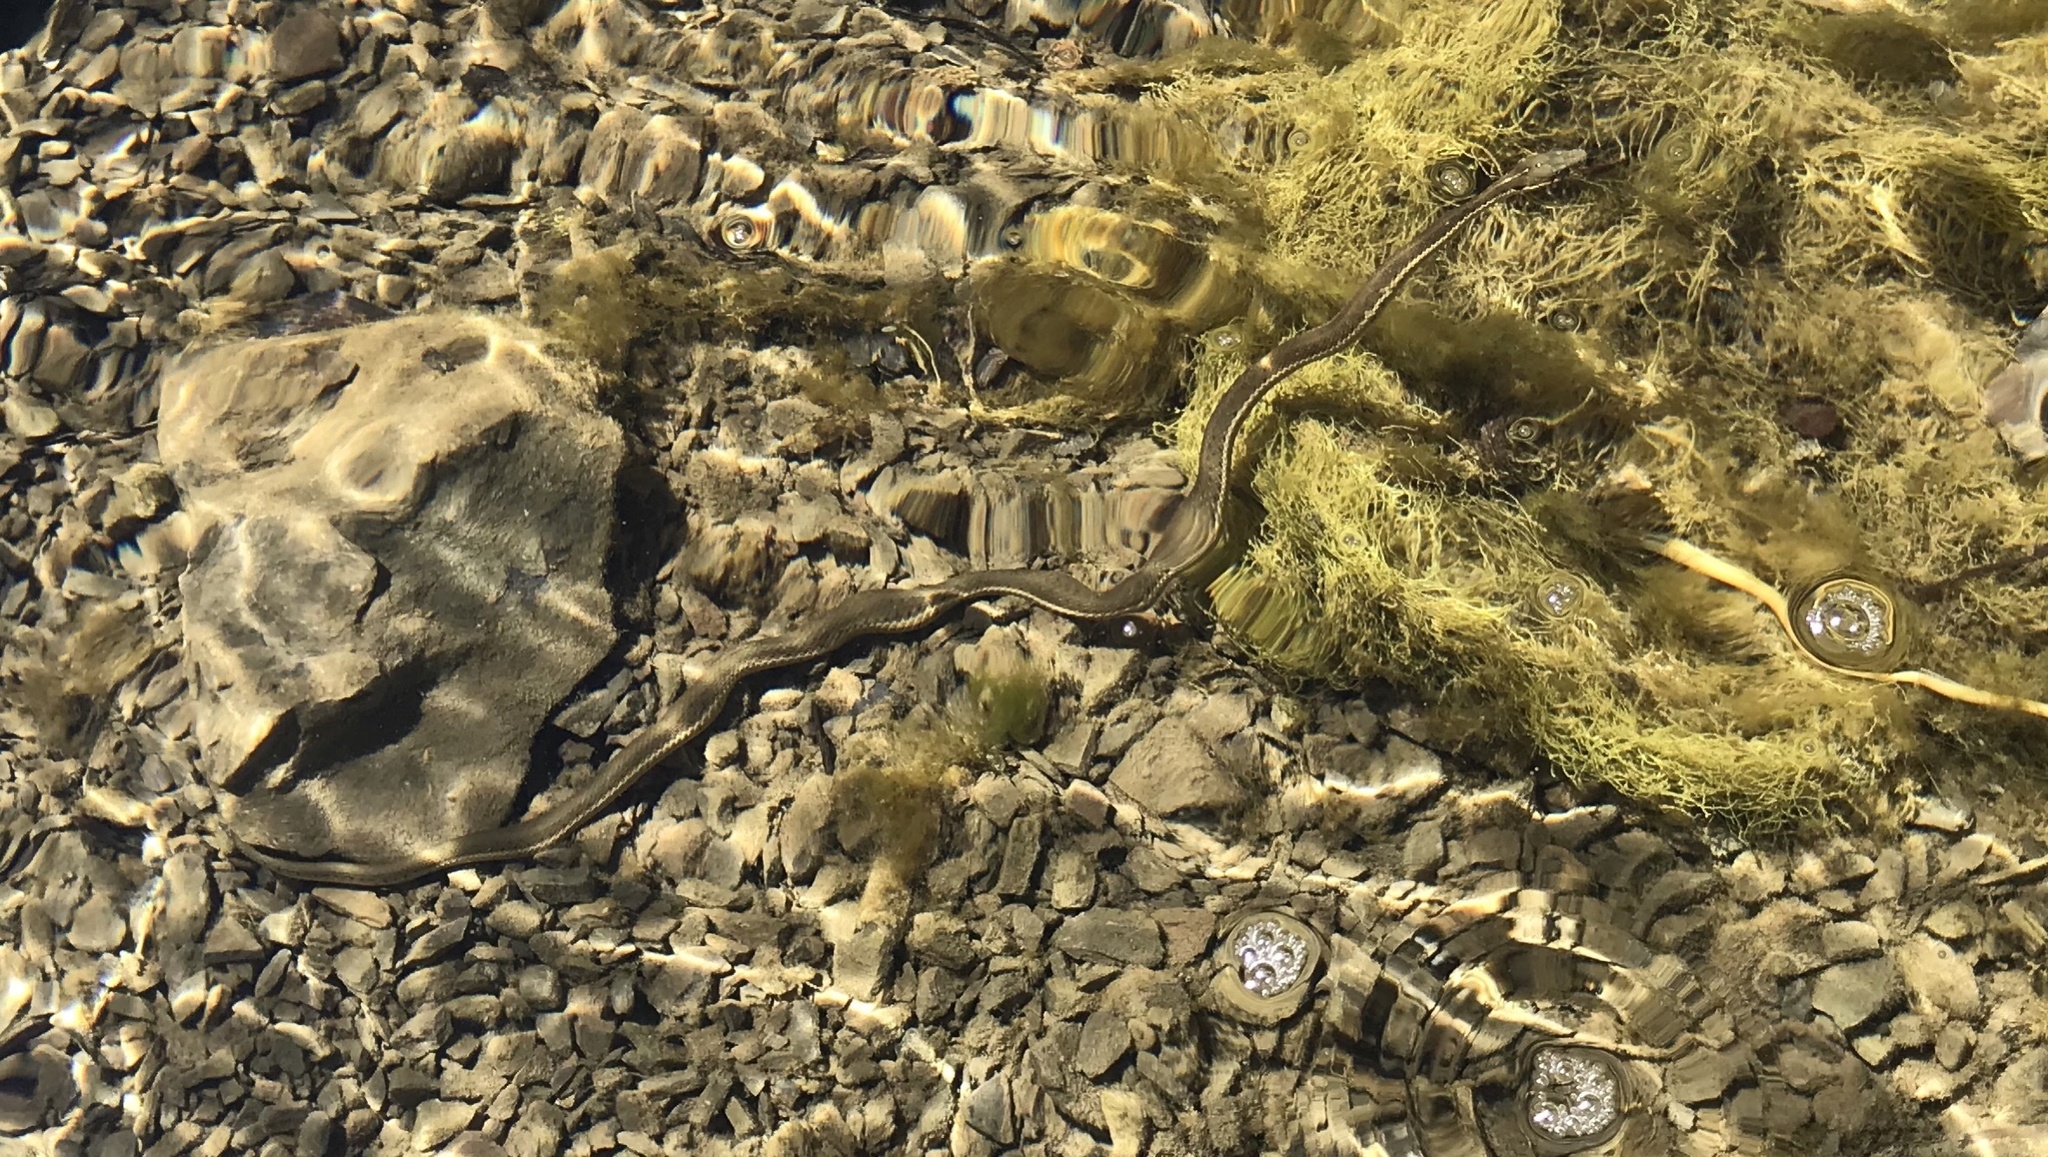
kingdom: Animalia
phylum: Chordata
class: Squamata
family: Colubridae
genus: Thamnophis
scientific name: Thamnophis hammondii
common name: Two-striped garter snake
